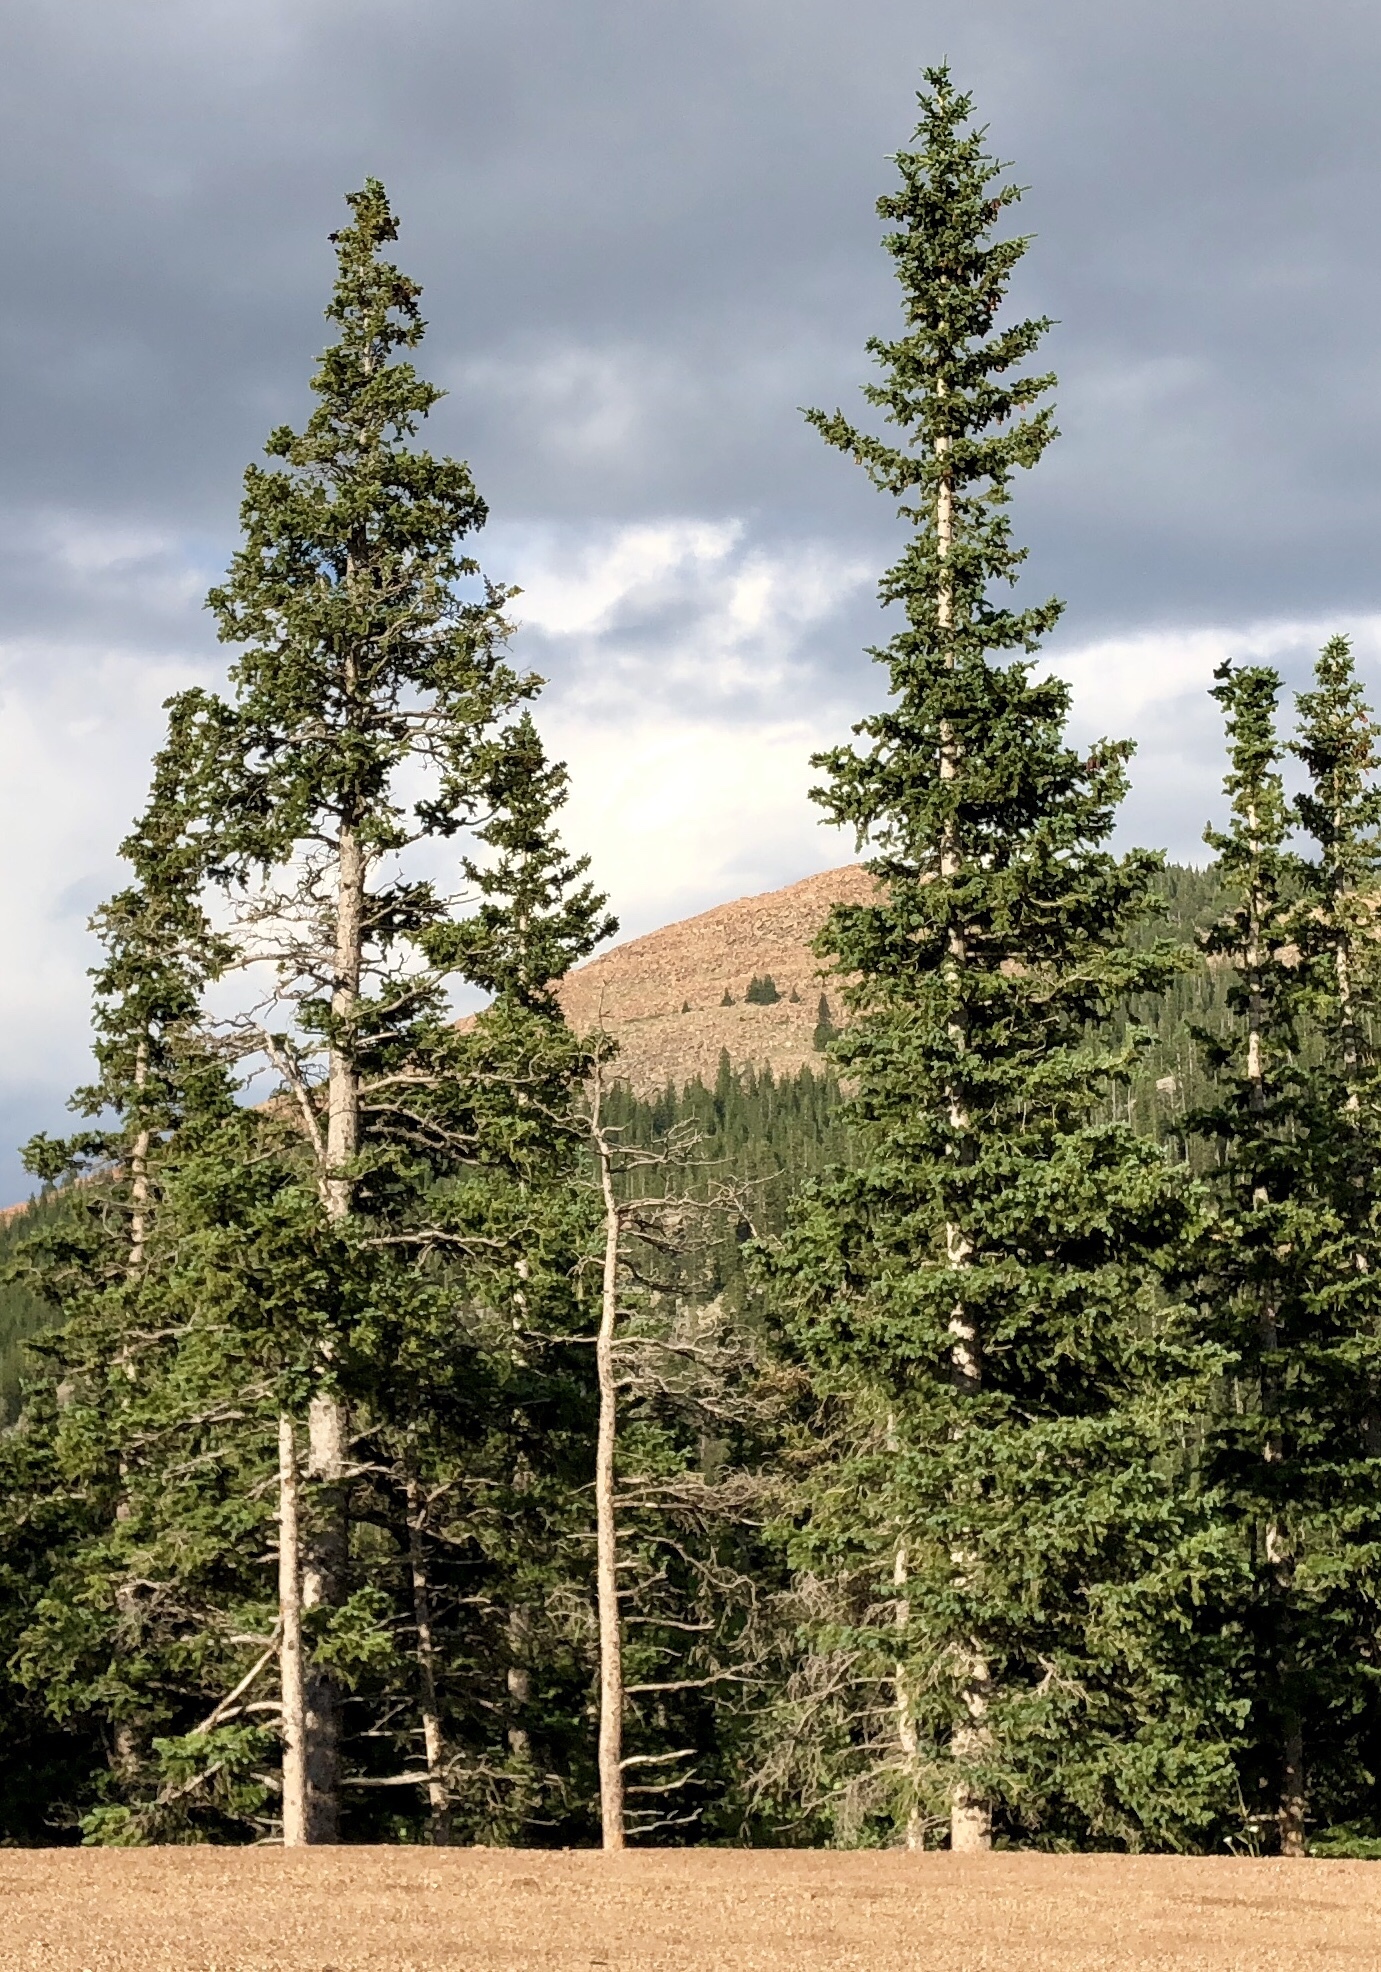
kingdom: Plantae
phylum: Tracheophyta
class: Pinopsida
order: Pinales
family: Pinaceae
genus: Picea
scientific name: Picea engelmannii
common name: Engelmann spruce
